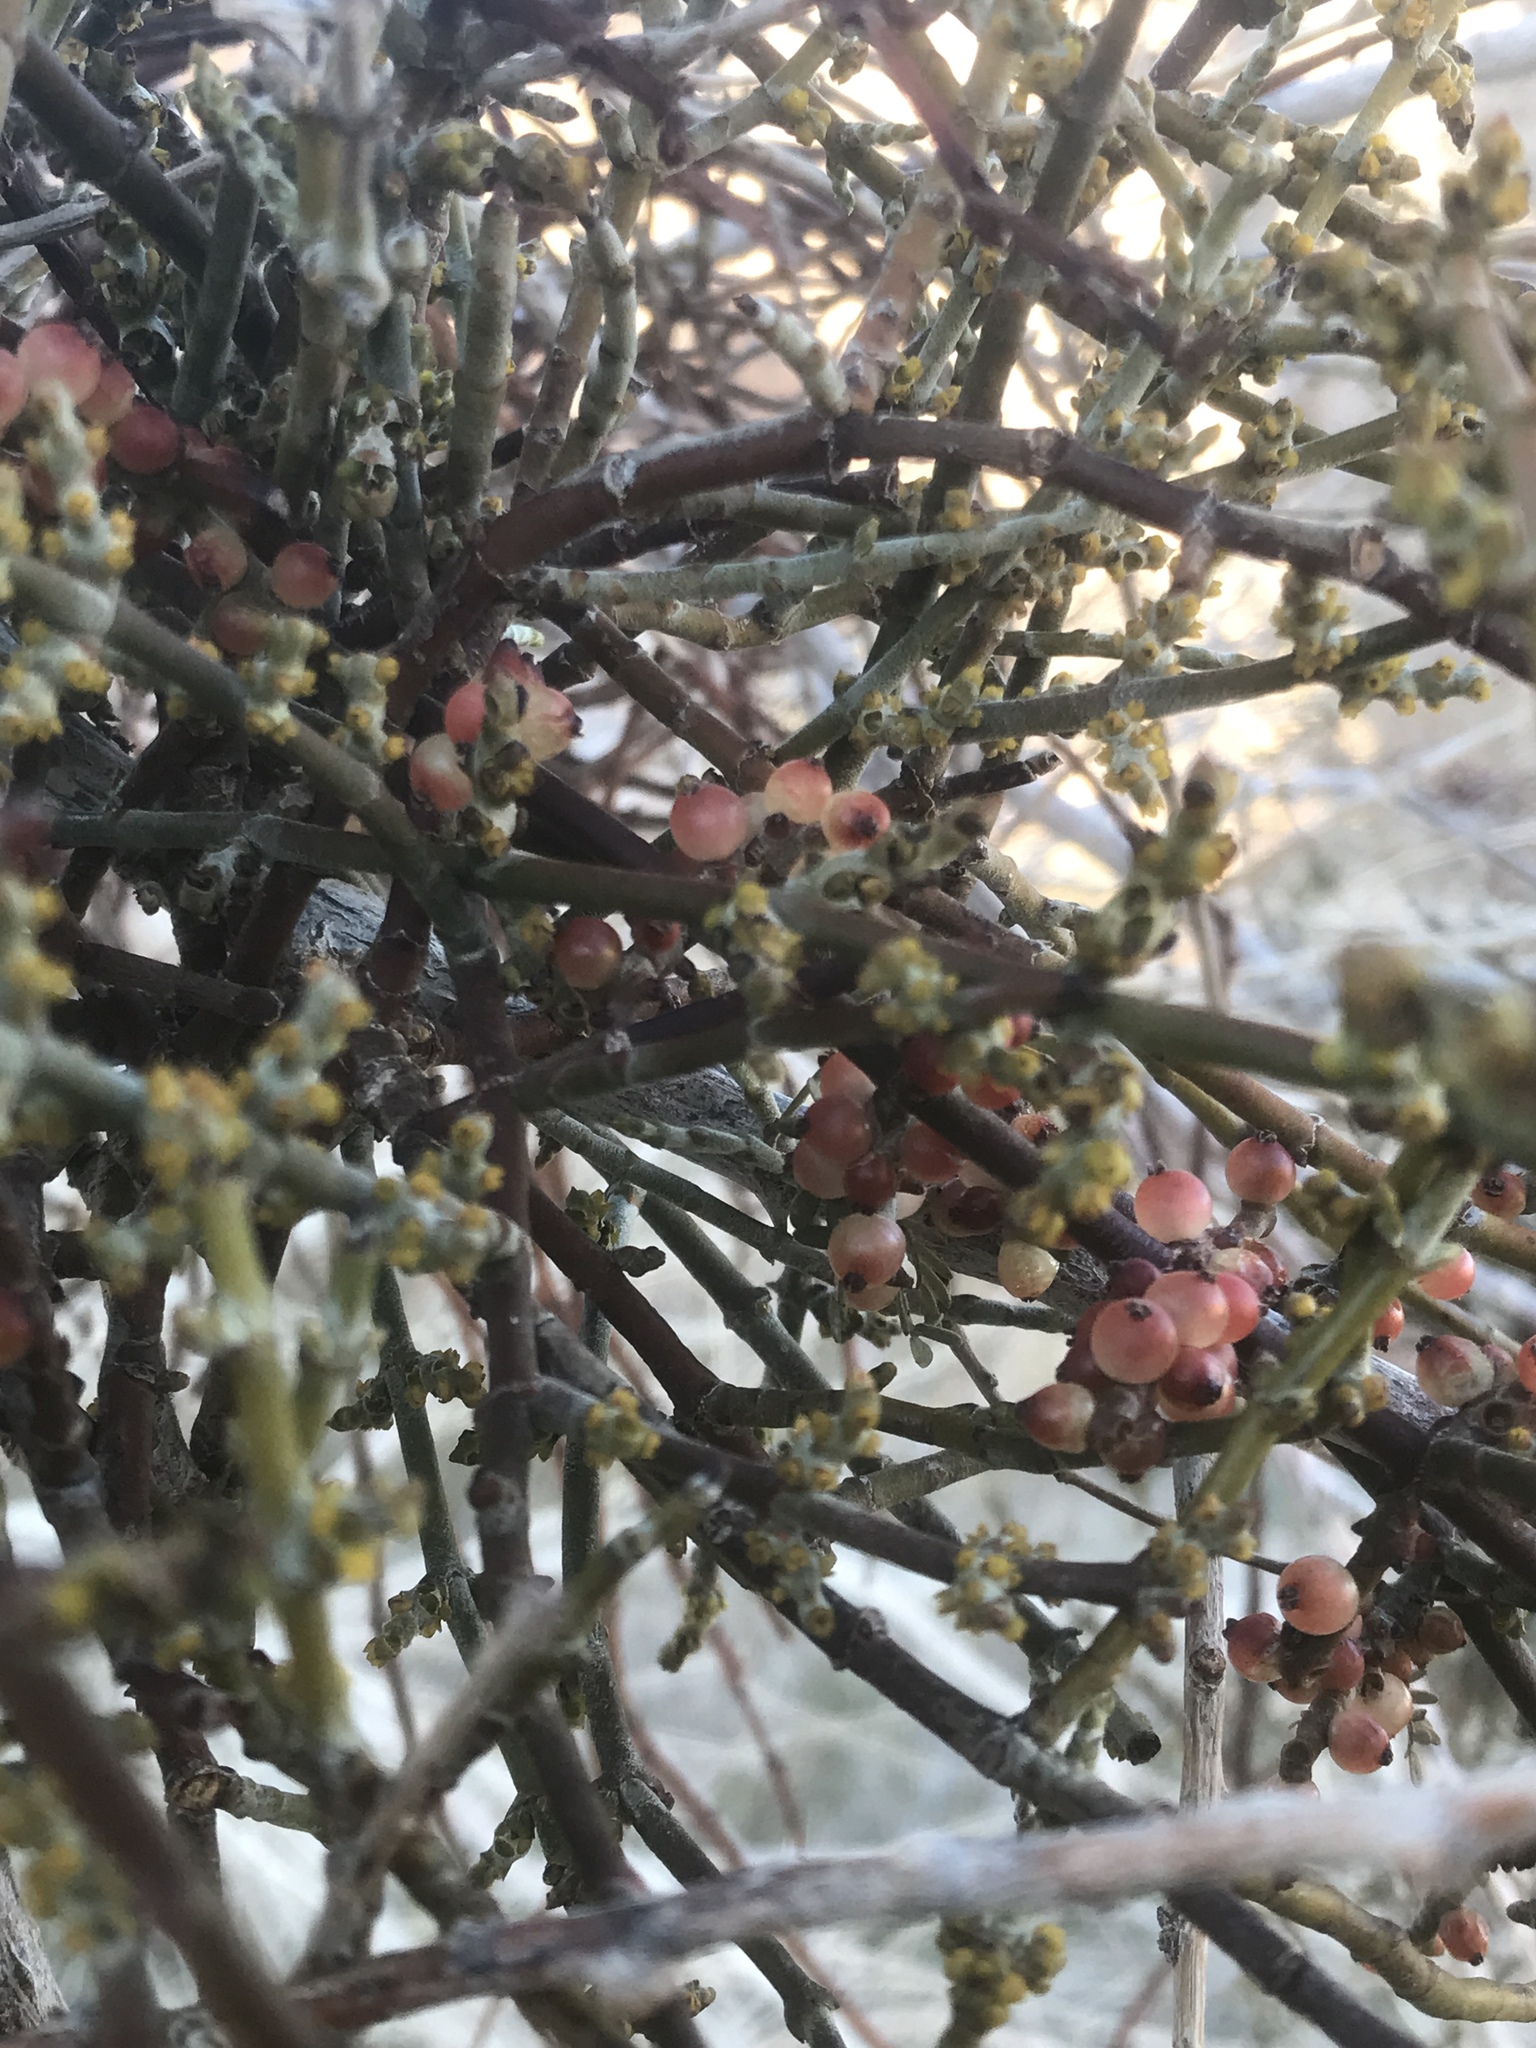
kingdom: Plantae
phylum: Tracheophyta
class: Magnoliopsida
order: Santalales
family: Viscaceae
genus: Phoradendron
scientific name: Phoradendron californicum
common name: Acacia mistletoe
